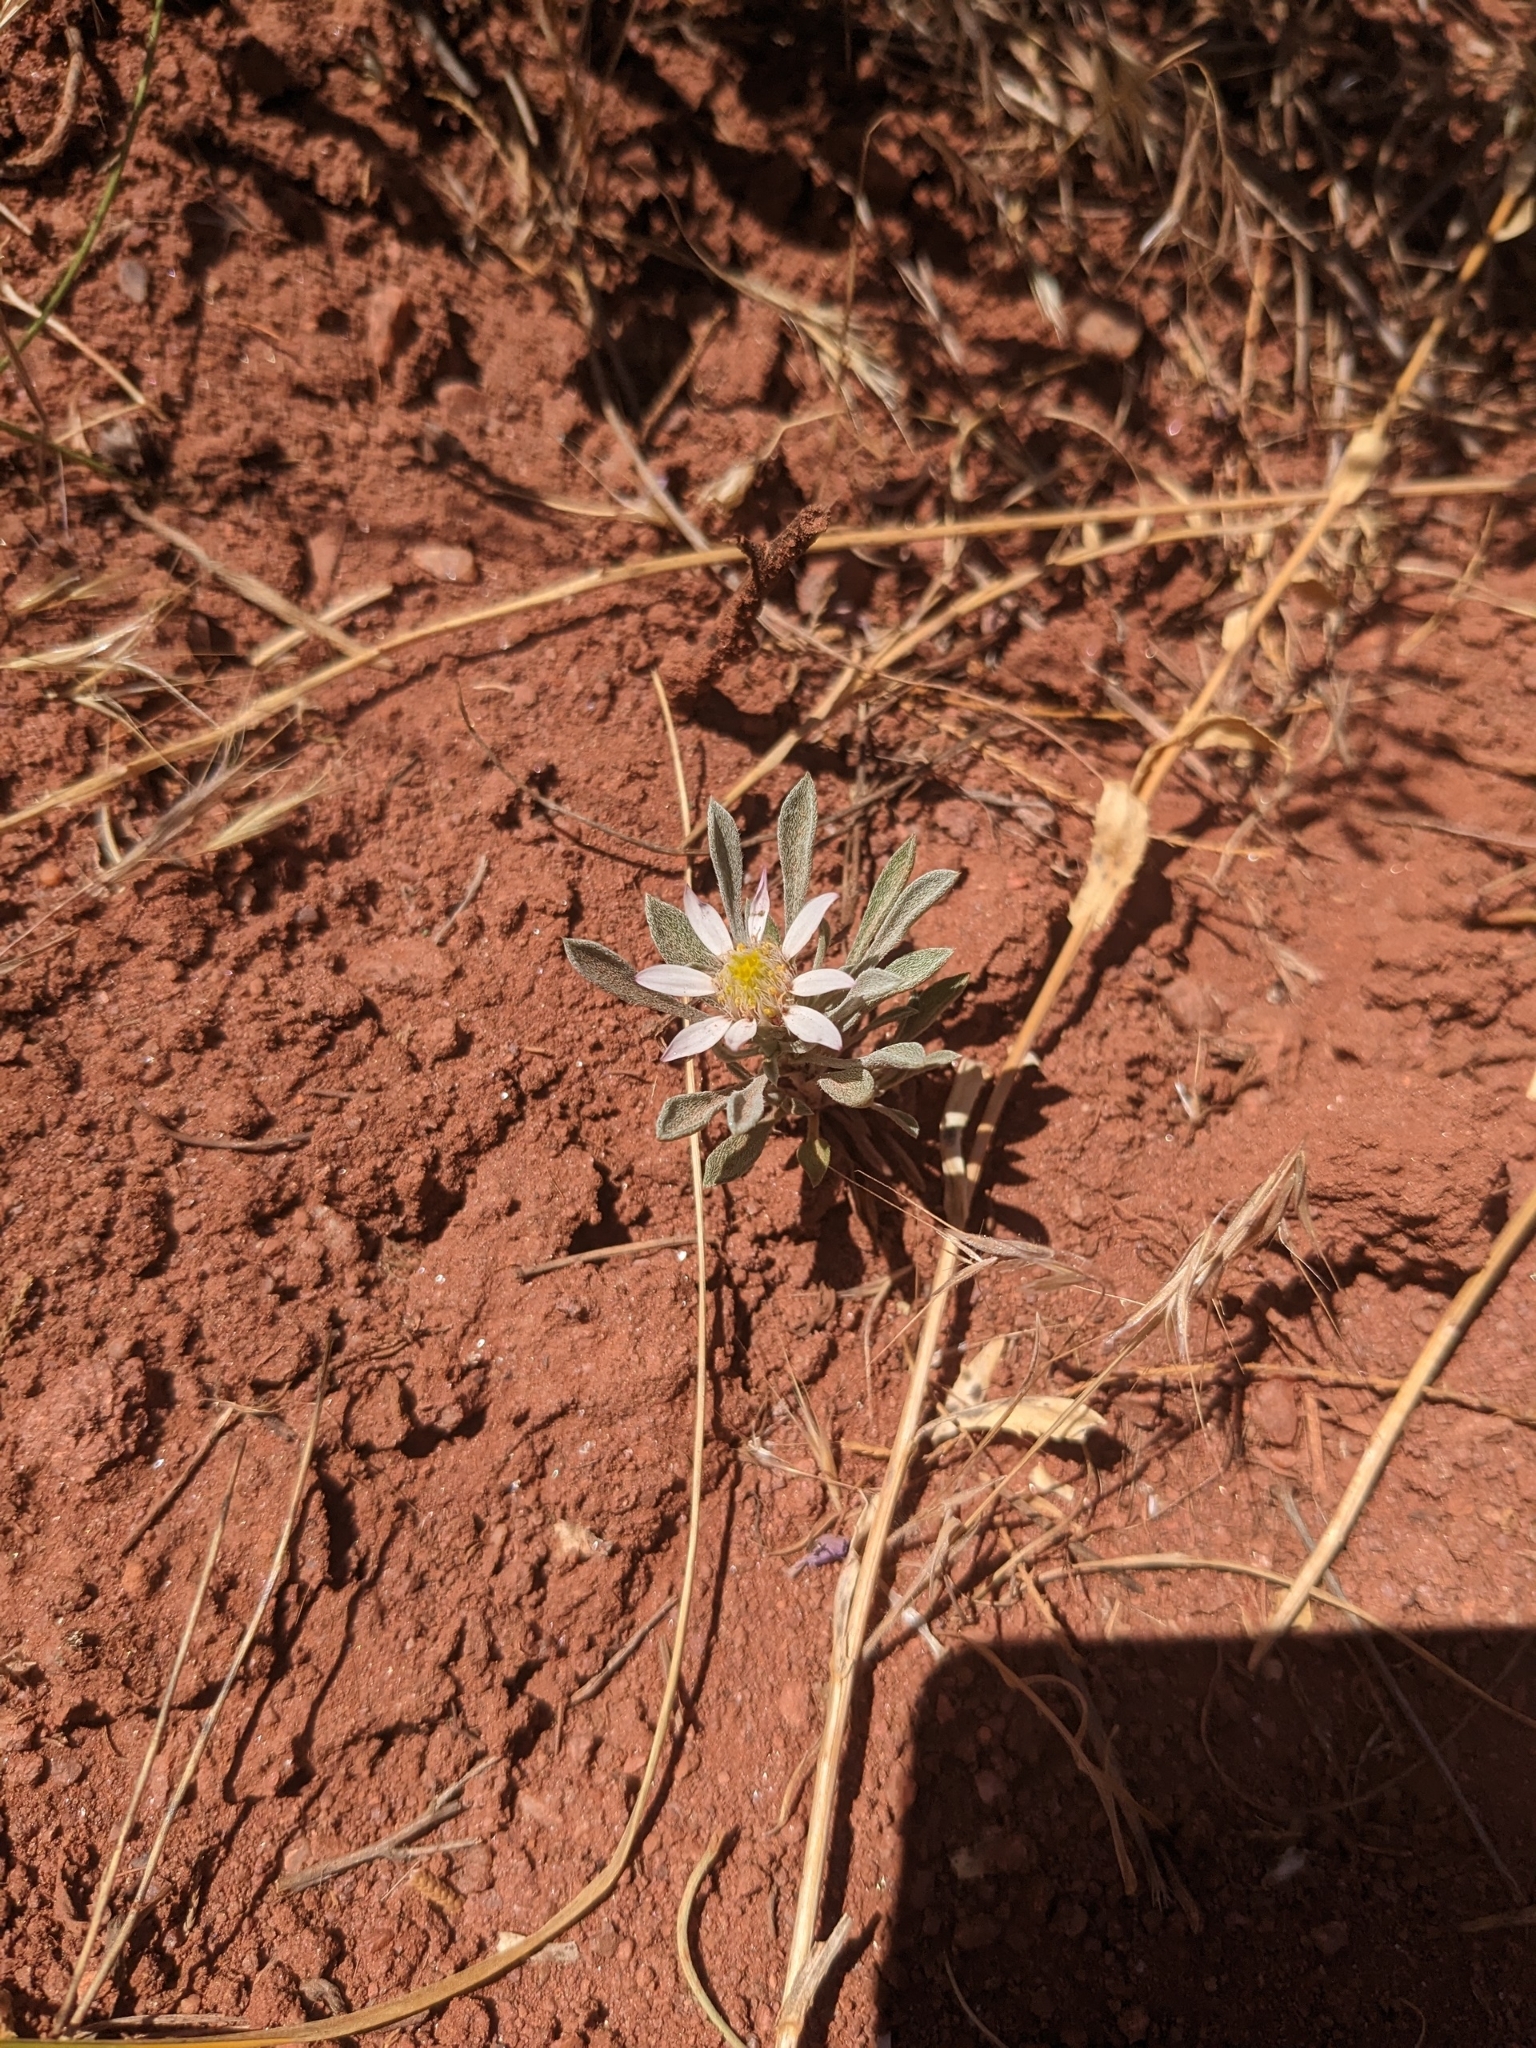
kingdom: Plantae
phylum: Tracheophyta
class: Magnoliopsida
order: Asterales
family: Asteraceae
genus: Townsendia
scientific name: Townsendia incana
